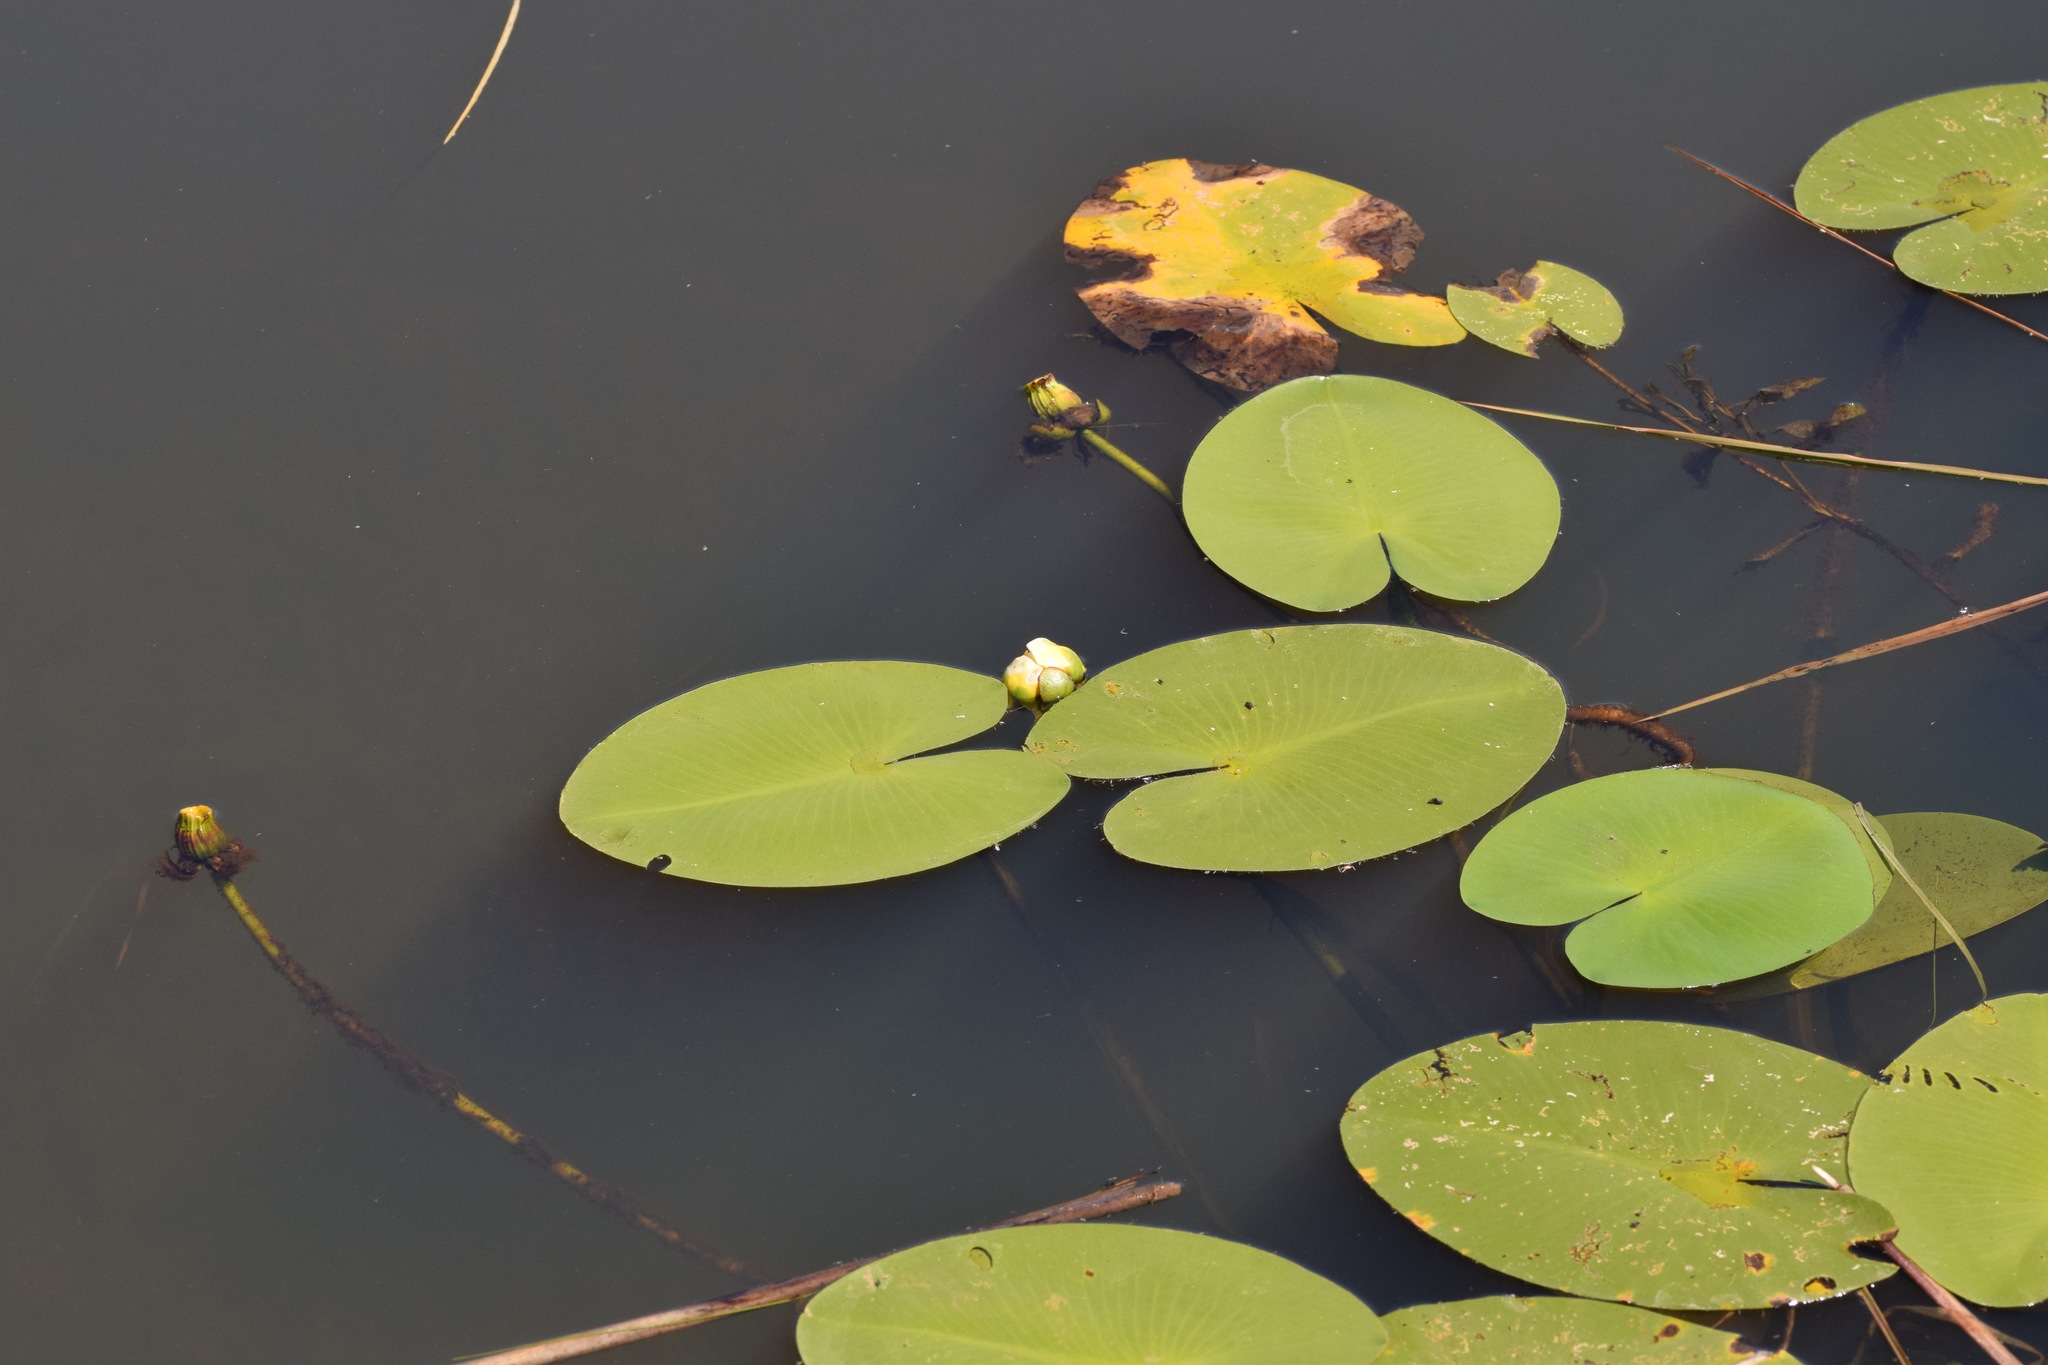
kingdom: Plantae
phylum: Tracheophyta
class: Magnoliopsida
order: Nymphaeales
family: Nymphaeaceae
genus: Nuphar
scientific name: Nuphar variegata
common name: Beaver-root
